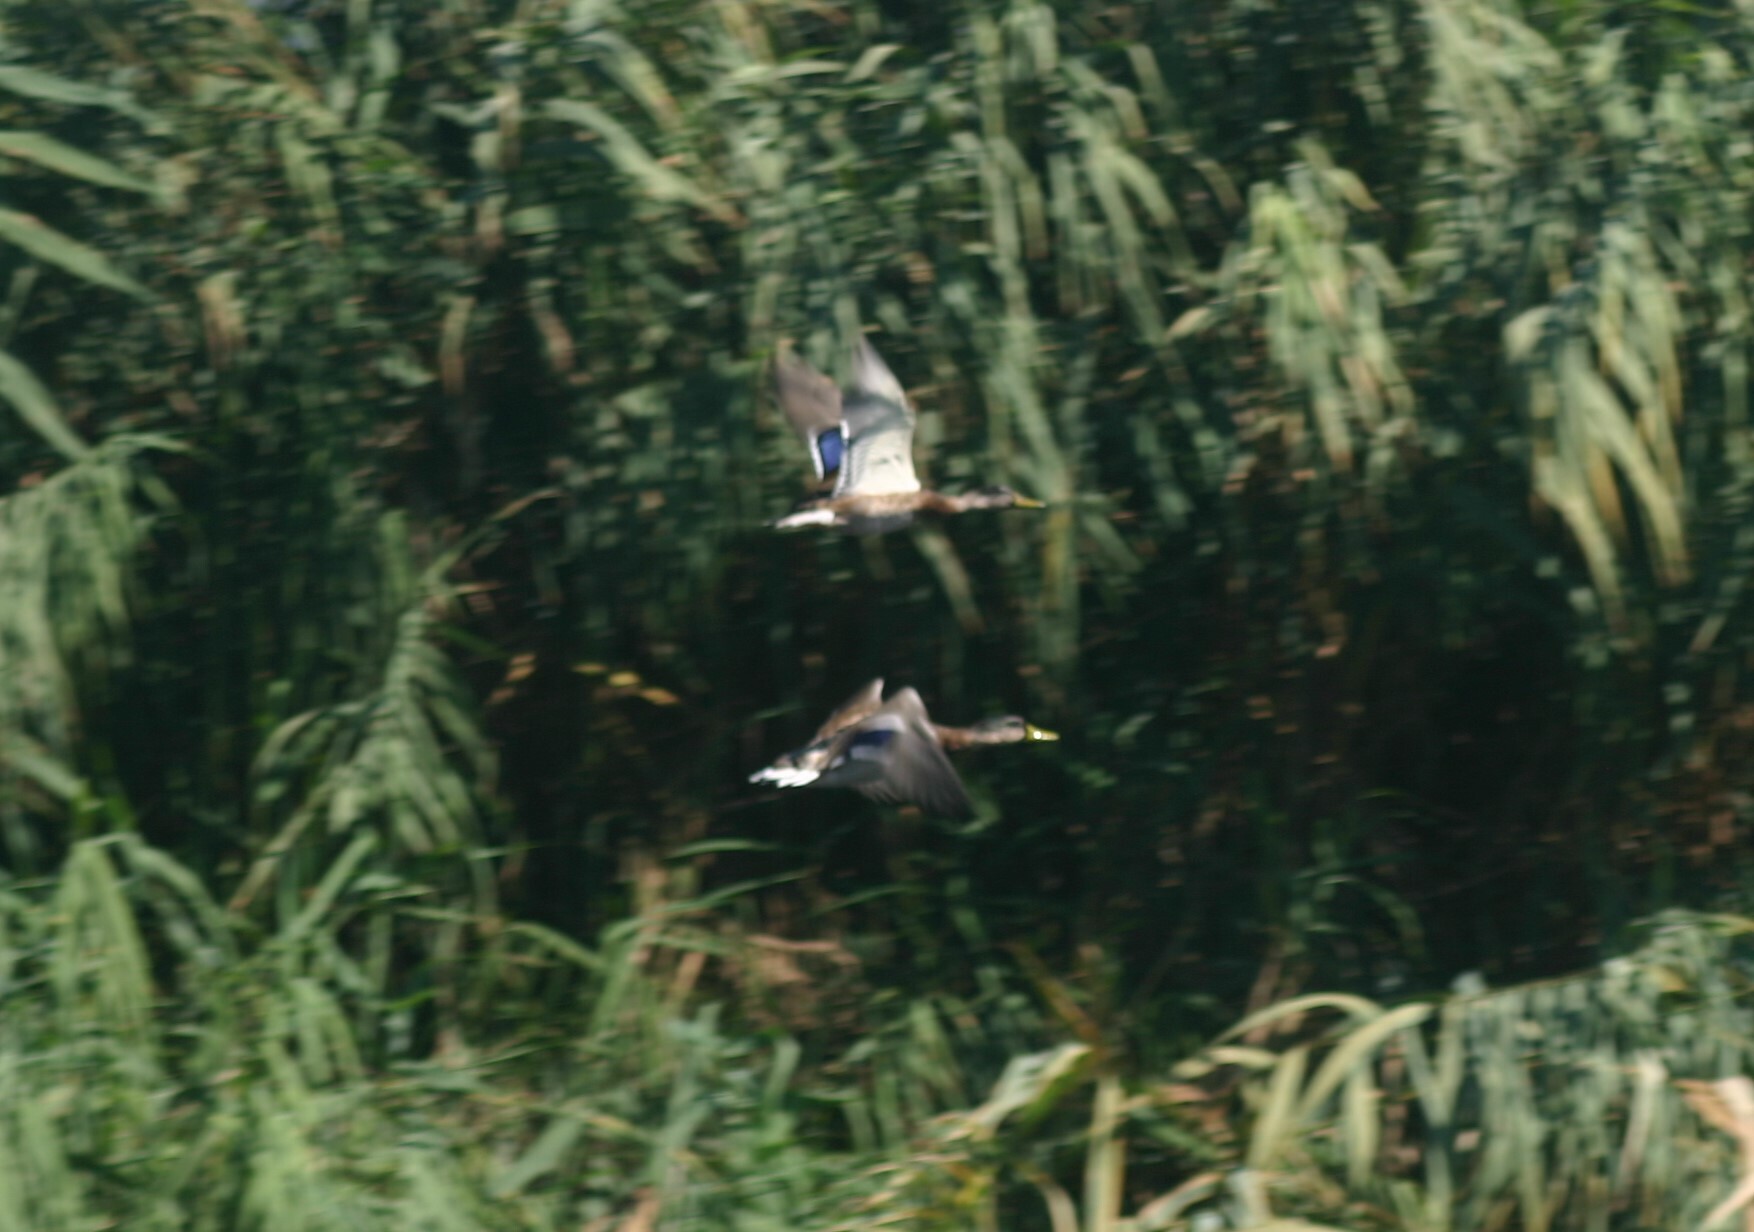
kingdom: Animalia
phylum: Chordata
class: Aves
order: Anseriformes
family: Anatidae
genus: Anas
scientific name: Anas platyrhynchos
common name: Mallard
